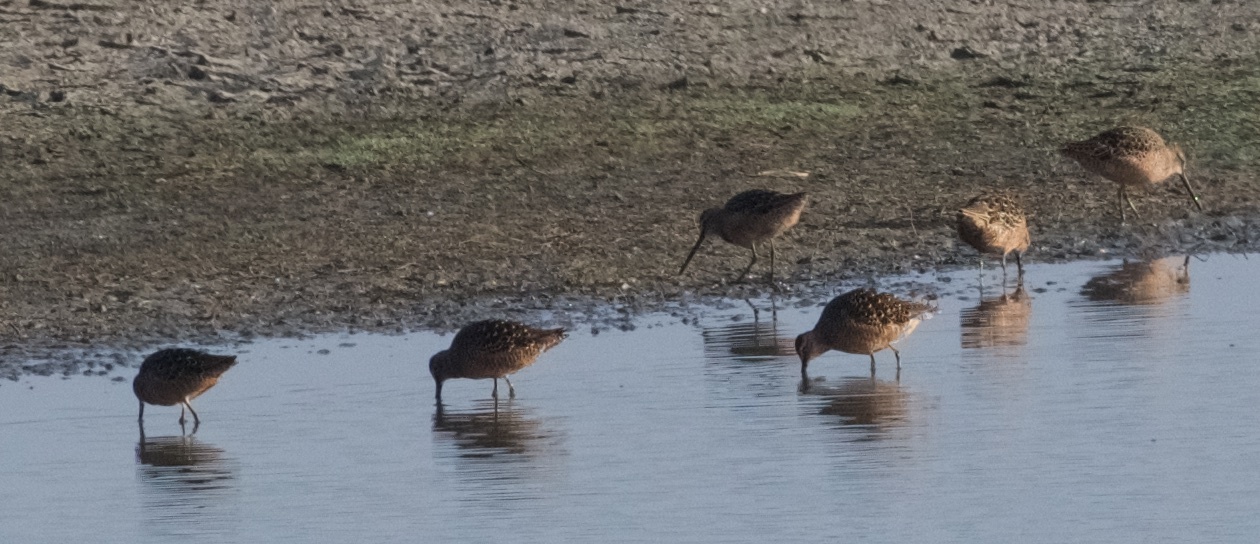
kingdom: Animalia
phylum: Chordata
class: Aves
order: Charadriiformes
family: Scolopacidae
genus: Limnodromus
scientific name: Limnodromus scolopaceus
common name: Long-billed dowitcher
